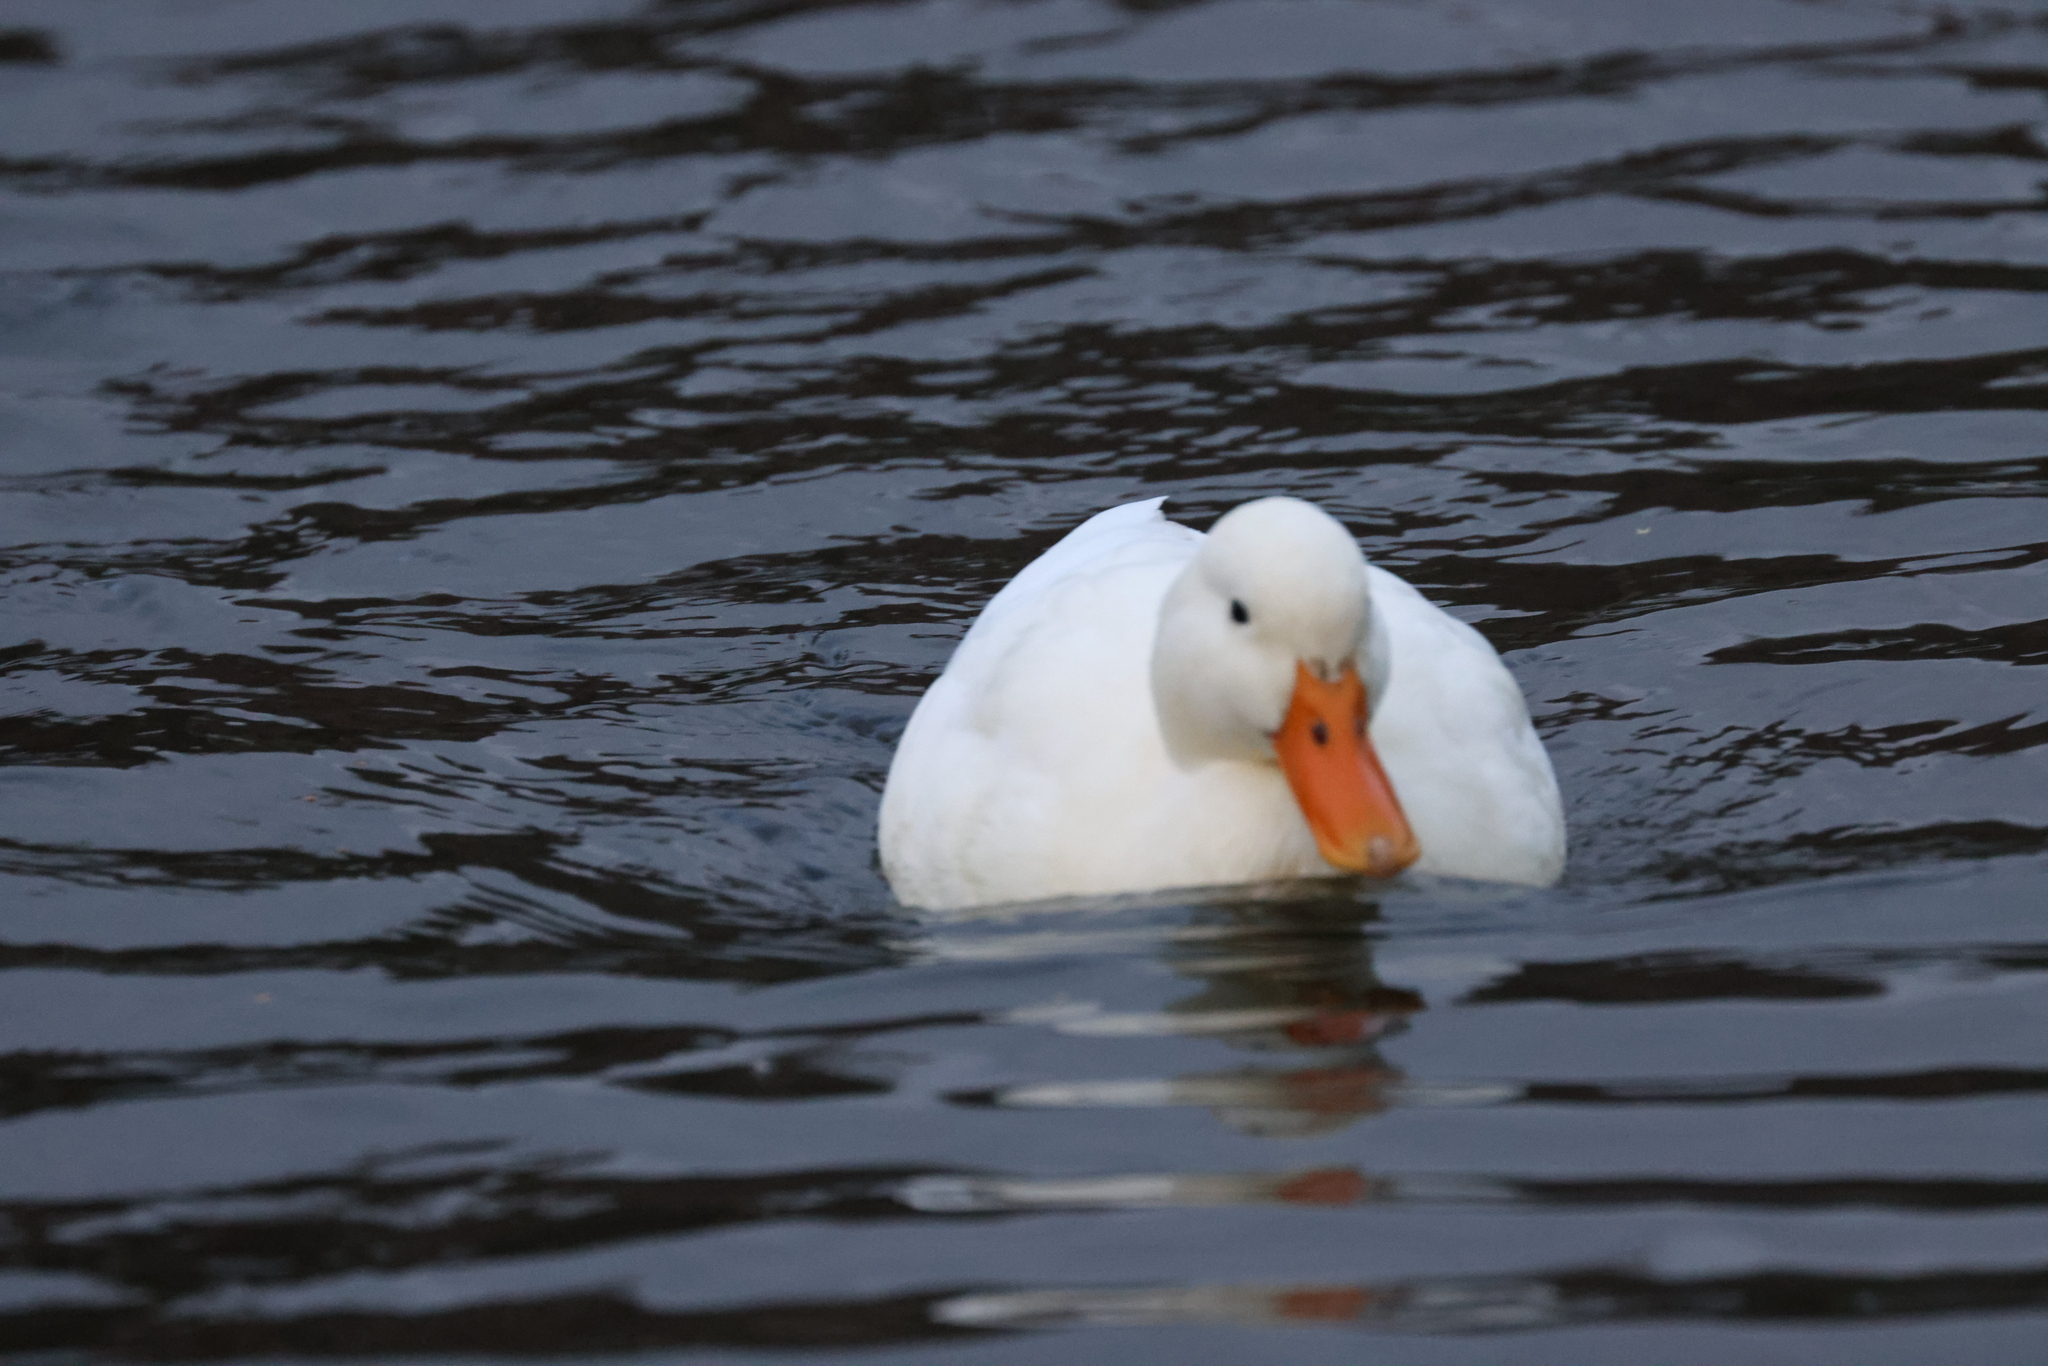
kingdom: Animalia
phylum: Chordata
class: Aves
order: Anseriformes
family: Anatidae
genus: Anas
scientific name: Anas platyrhynchos
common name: Mallard
